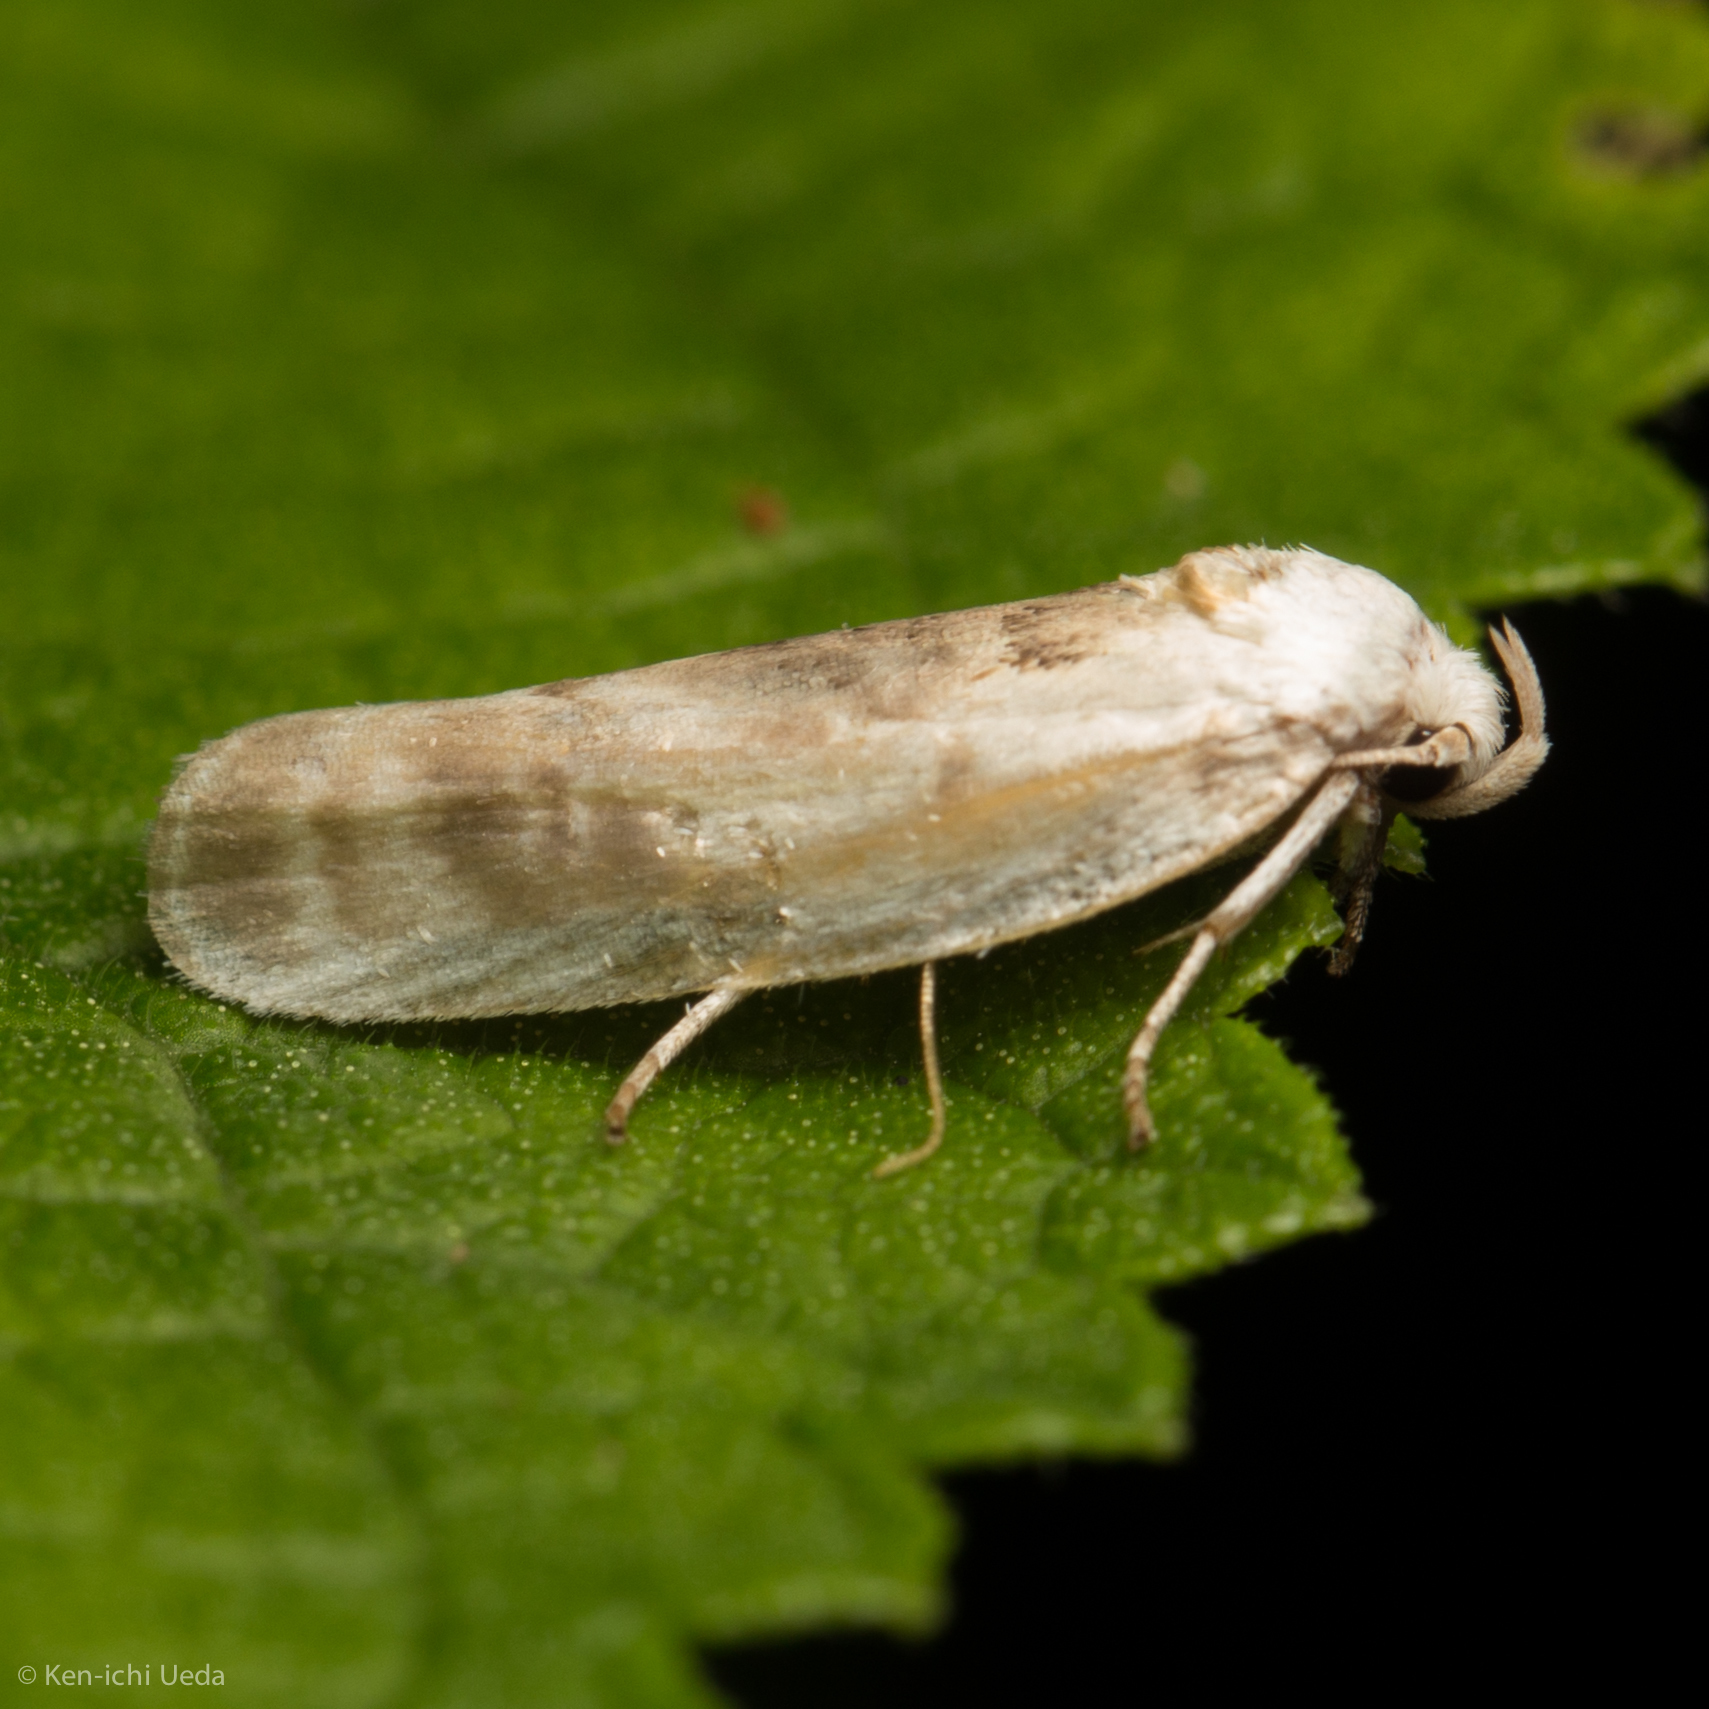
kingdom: Animalia
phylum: Arthropoda
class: Insecta
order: Lepidoptera
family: Depressariidae
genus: Antaeotricha
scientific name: Antaeotricha leucillana
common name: Pale gray bird-dropping moth
